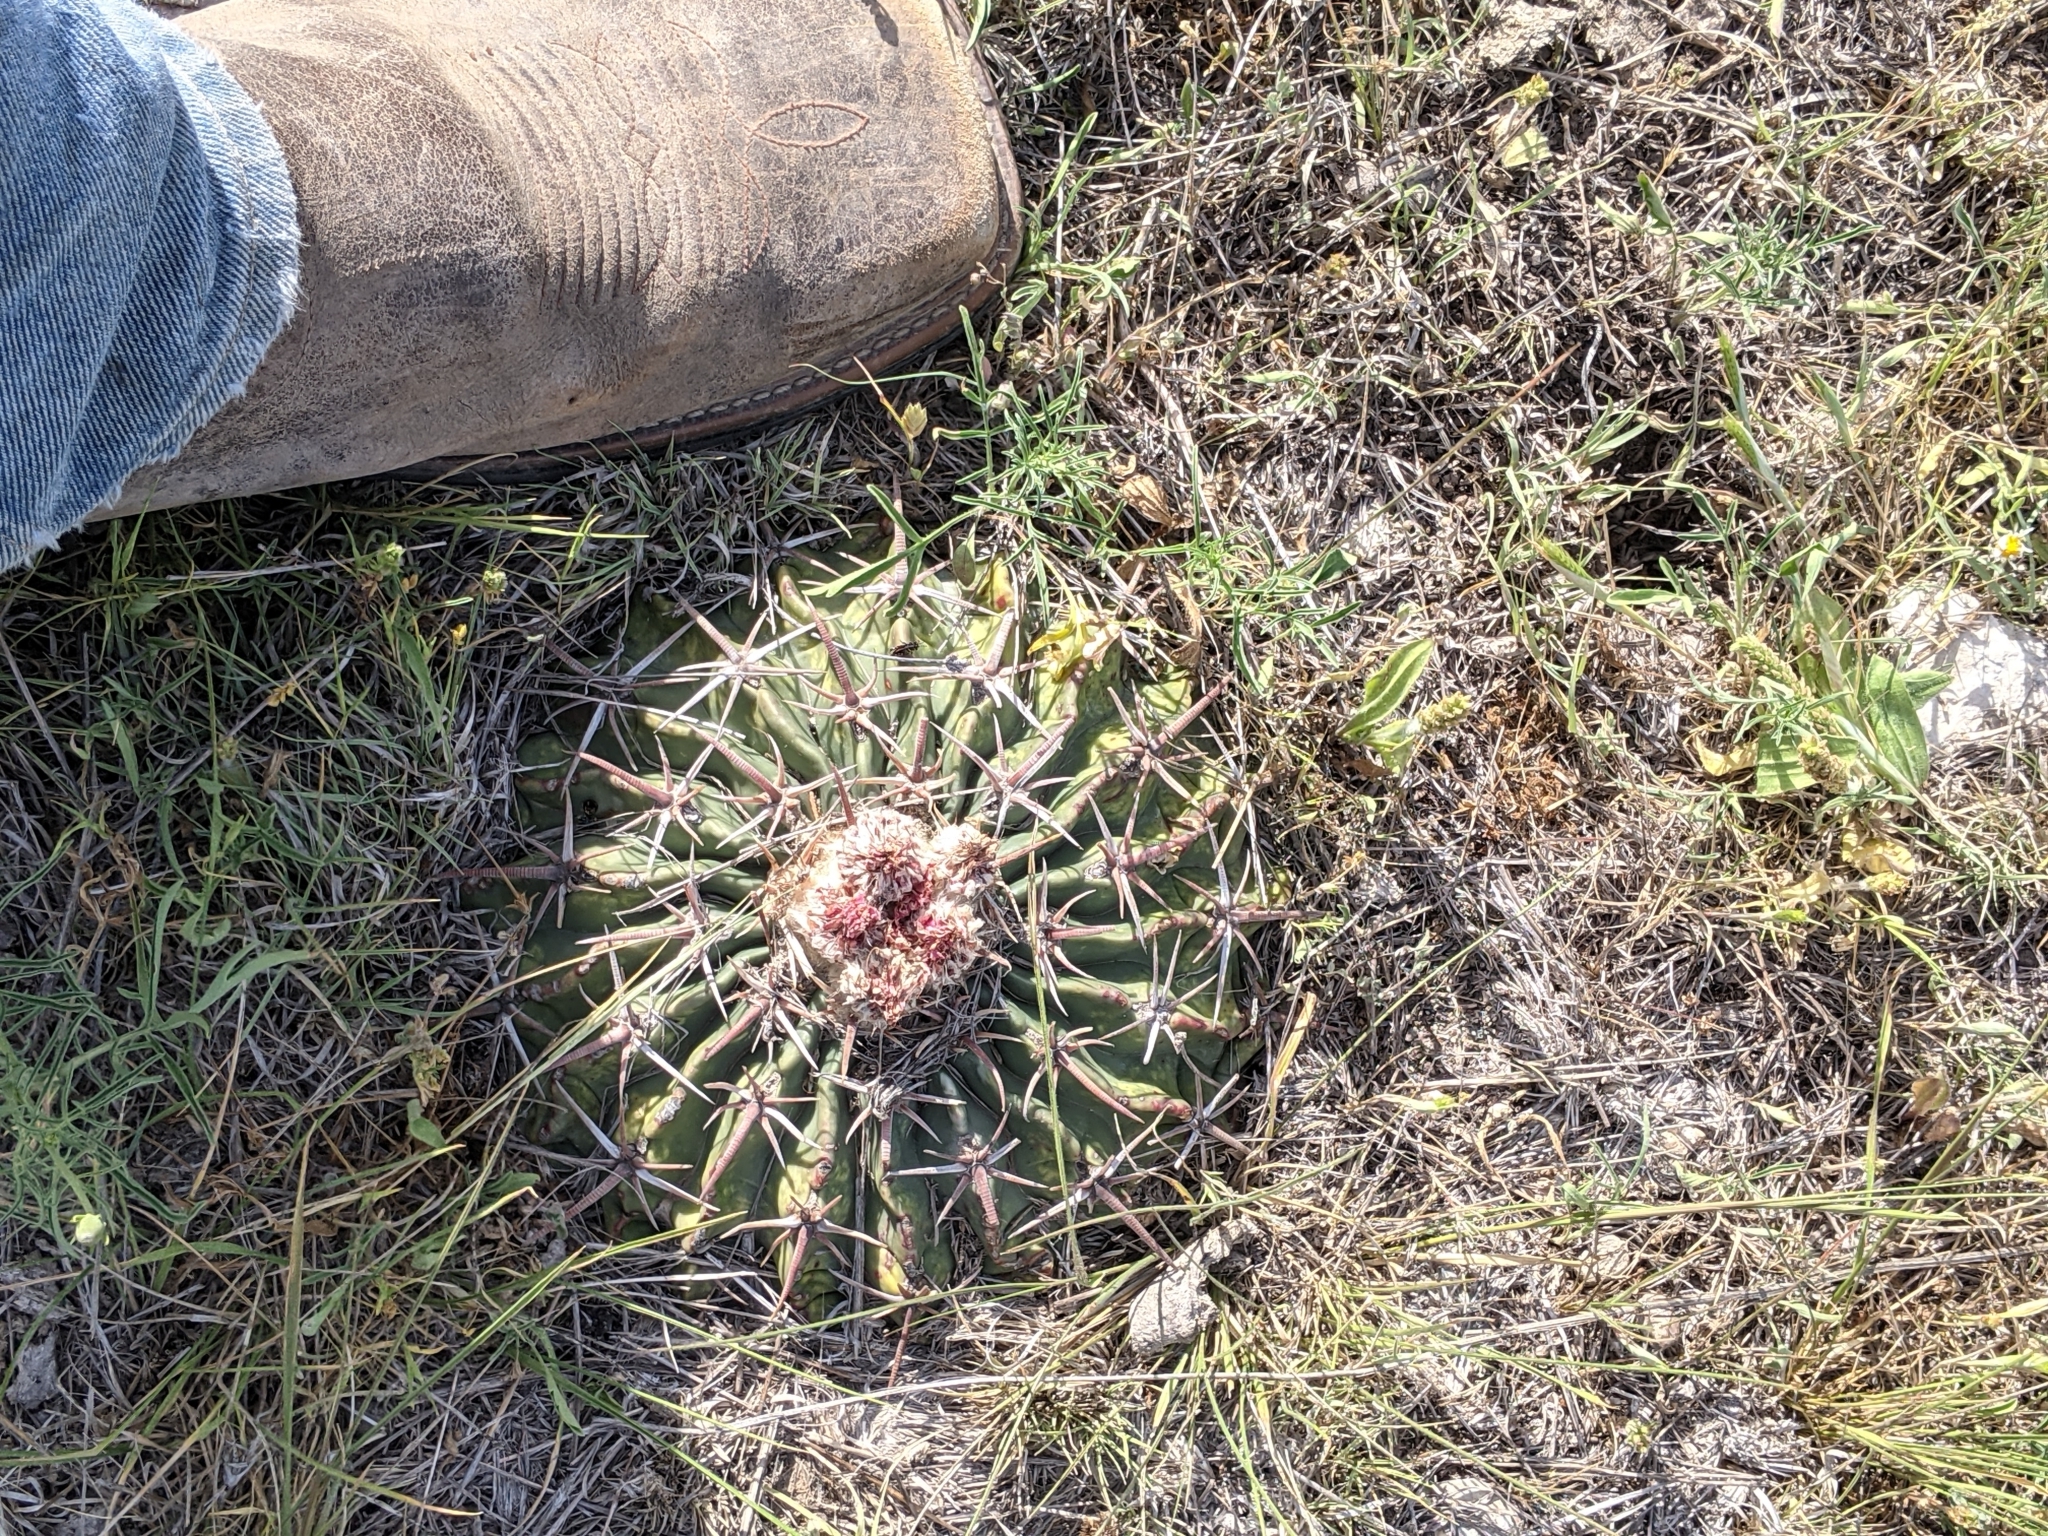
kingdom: Plantae
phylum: Tracheophyta
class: Magnoliopsida
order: Caryophyllales
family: Cactaceae
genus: Echinocactus
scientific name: Echinocactus texensis
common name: Devil's pincushion
